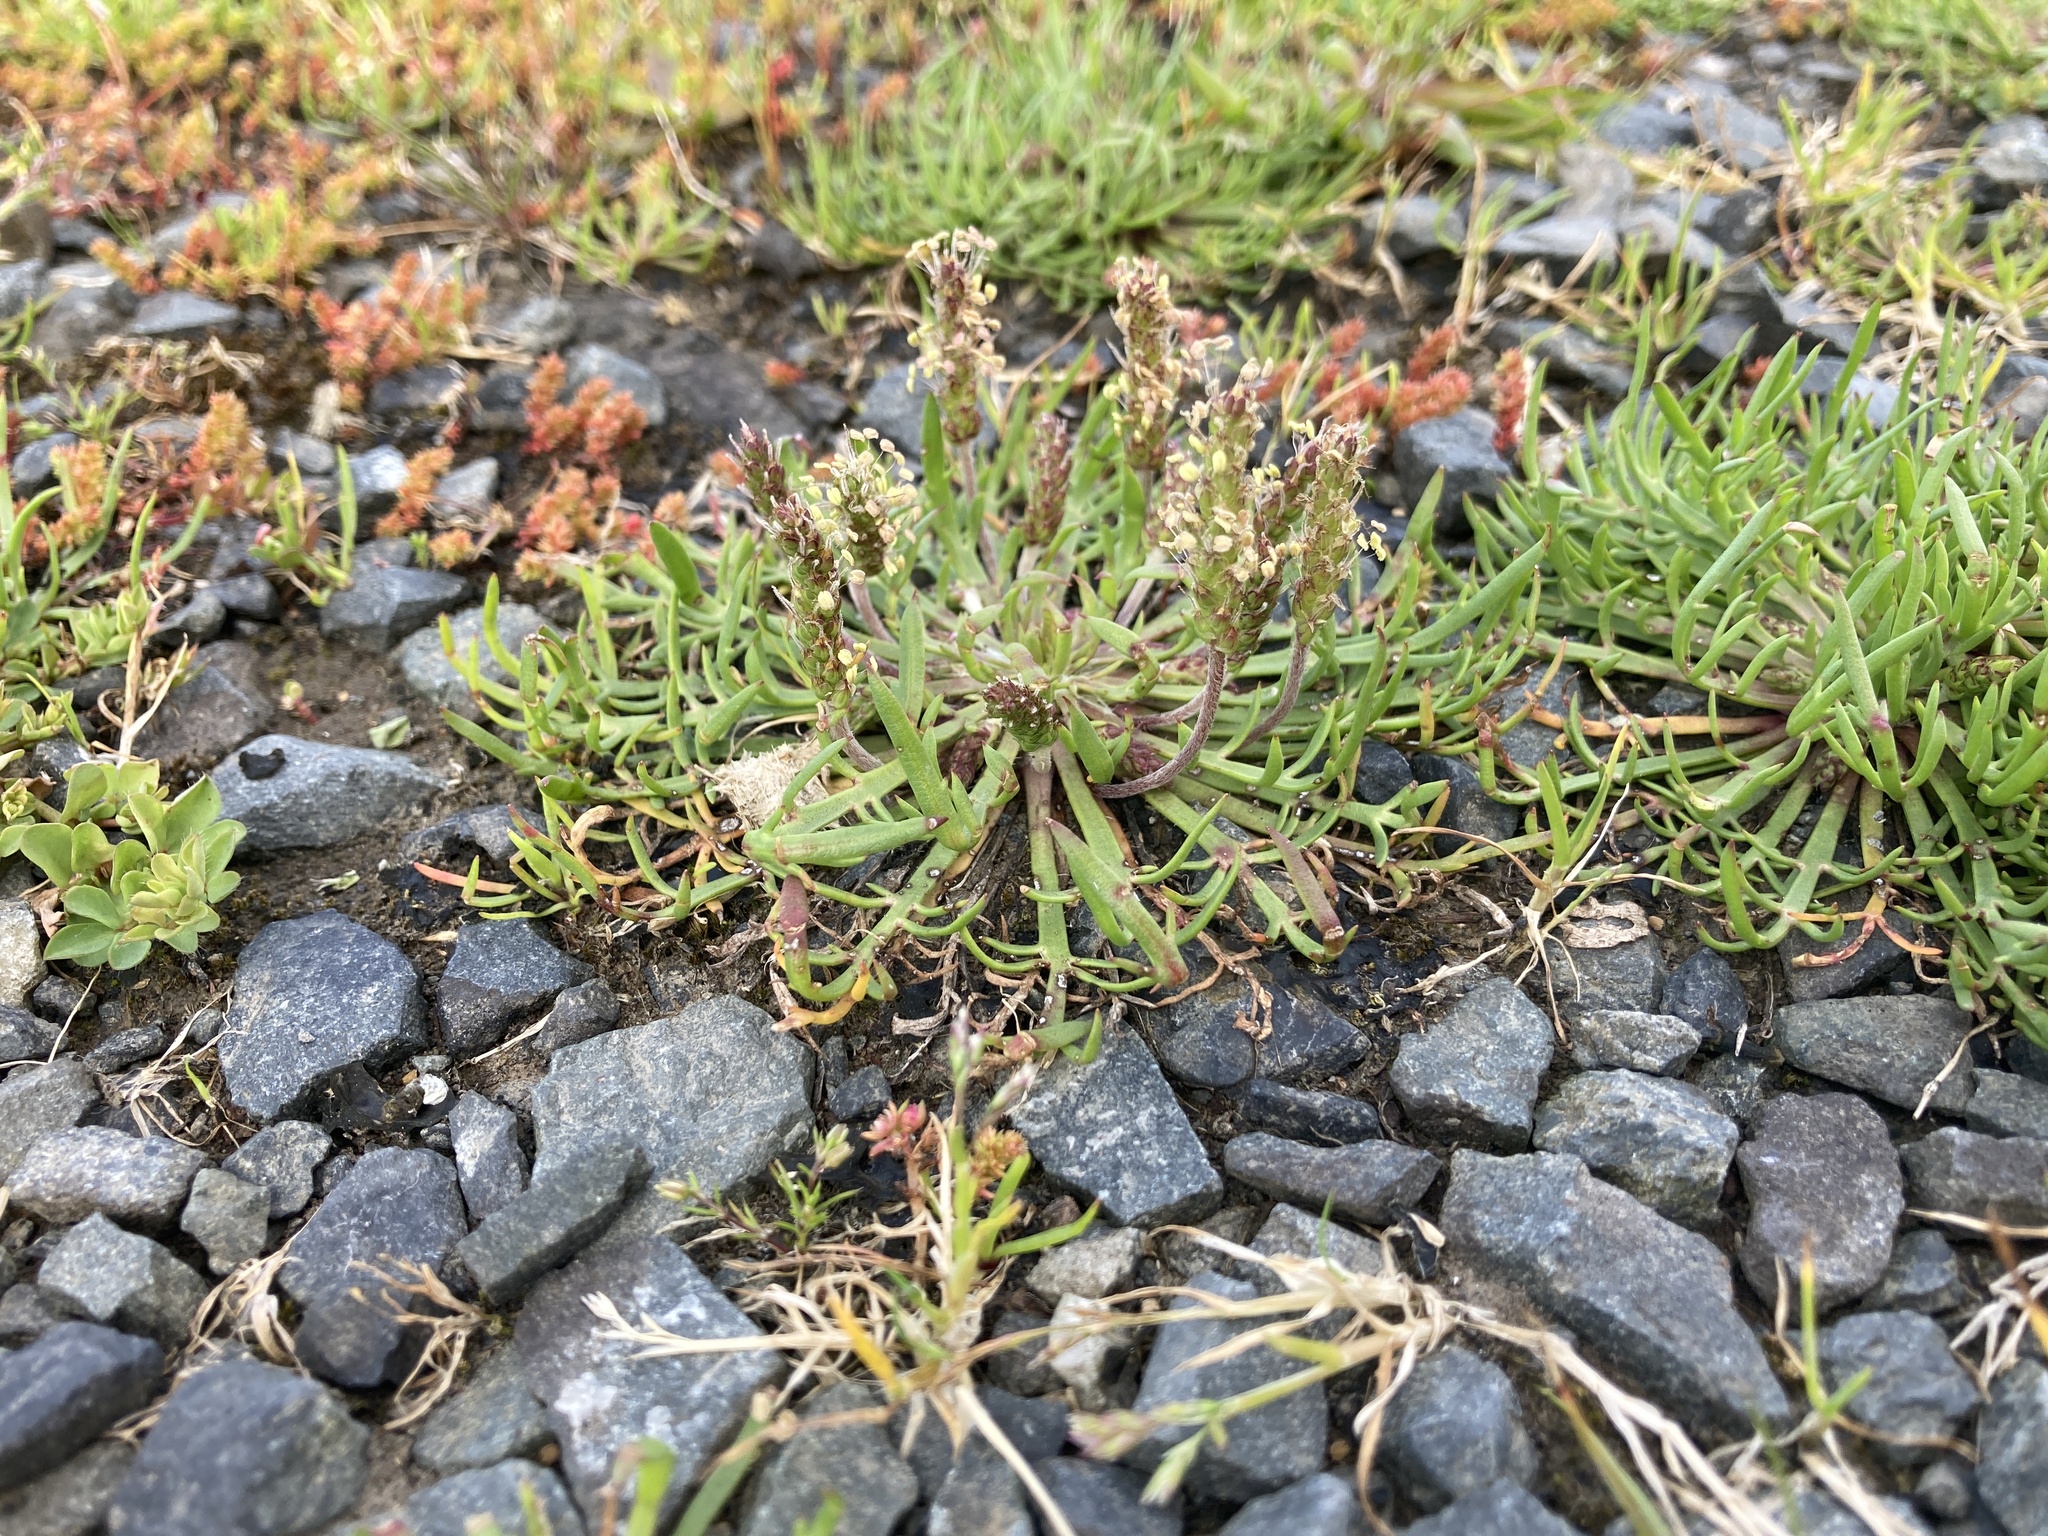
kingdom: Plantae
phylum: Tracheophyta
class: Magnoliopsida
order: Lamiales
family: Plantaginaceae
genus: Plantago
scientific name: Plantago coronopus
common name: Buck's-horn plantain
